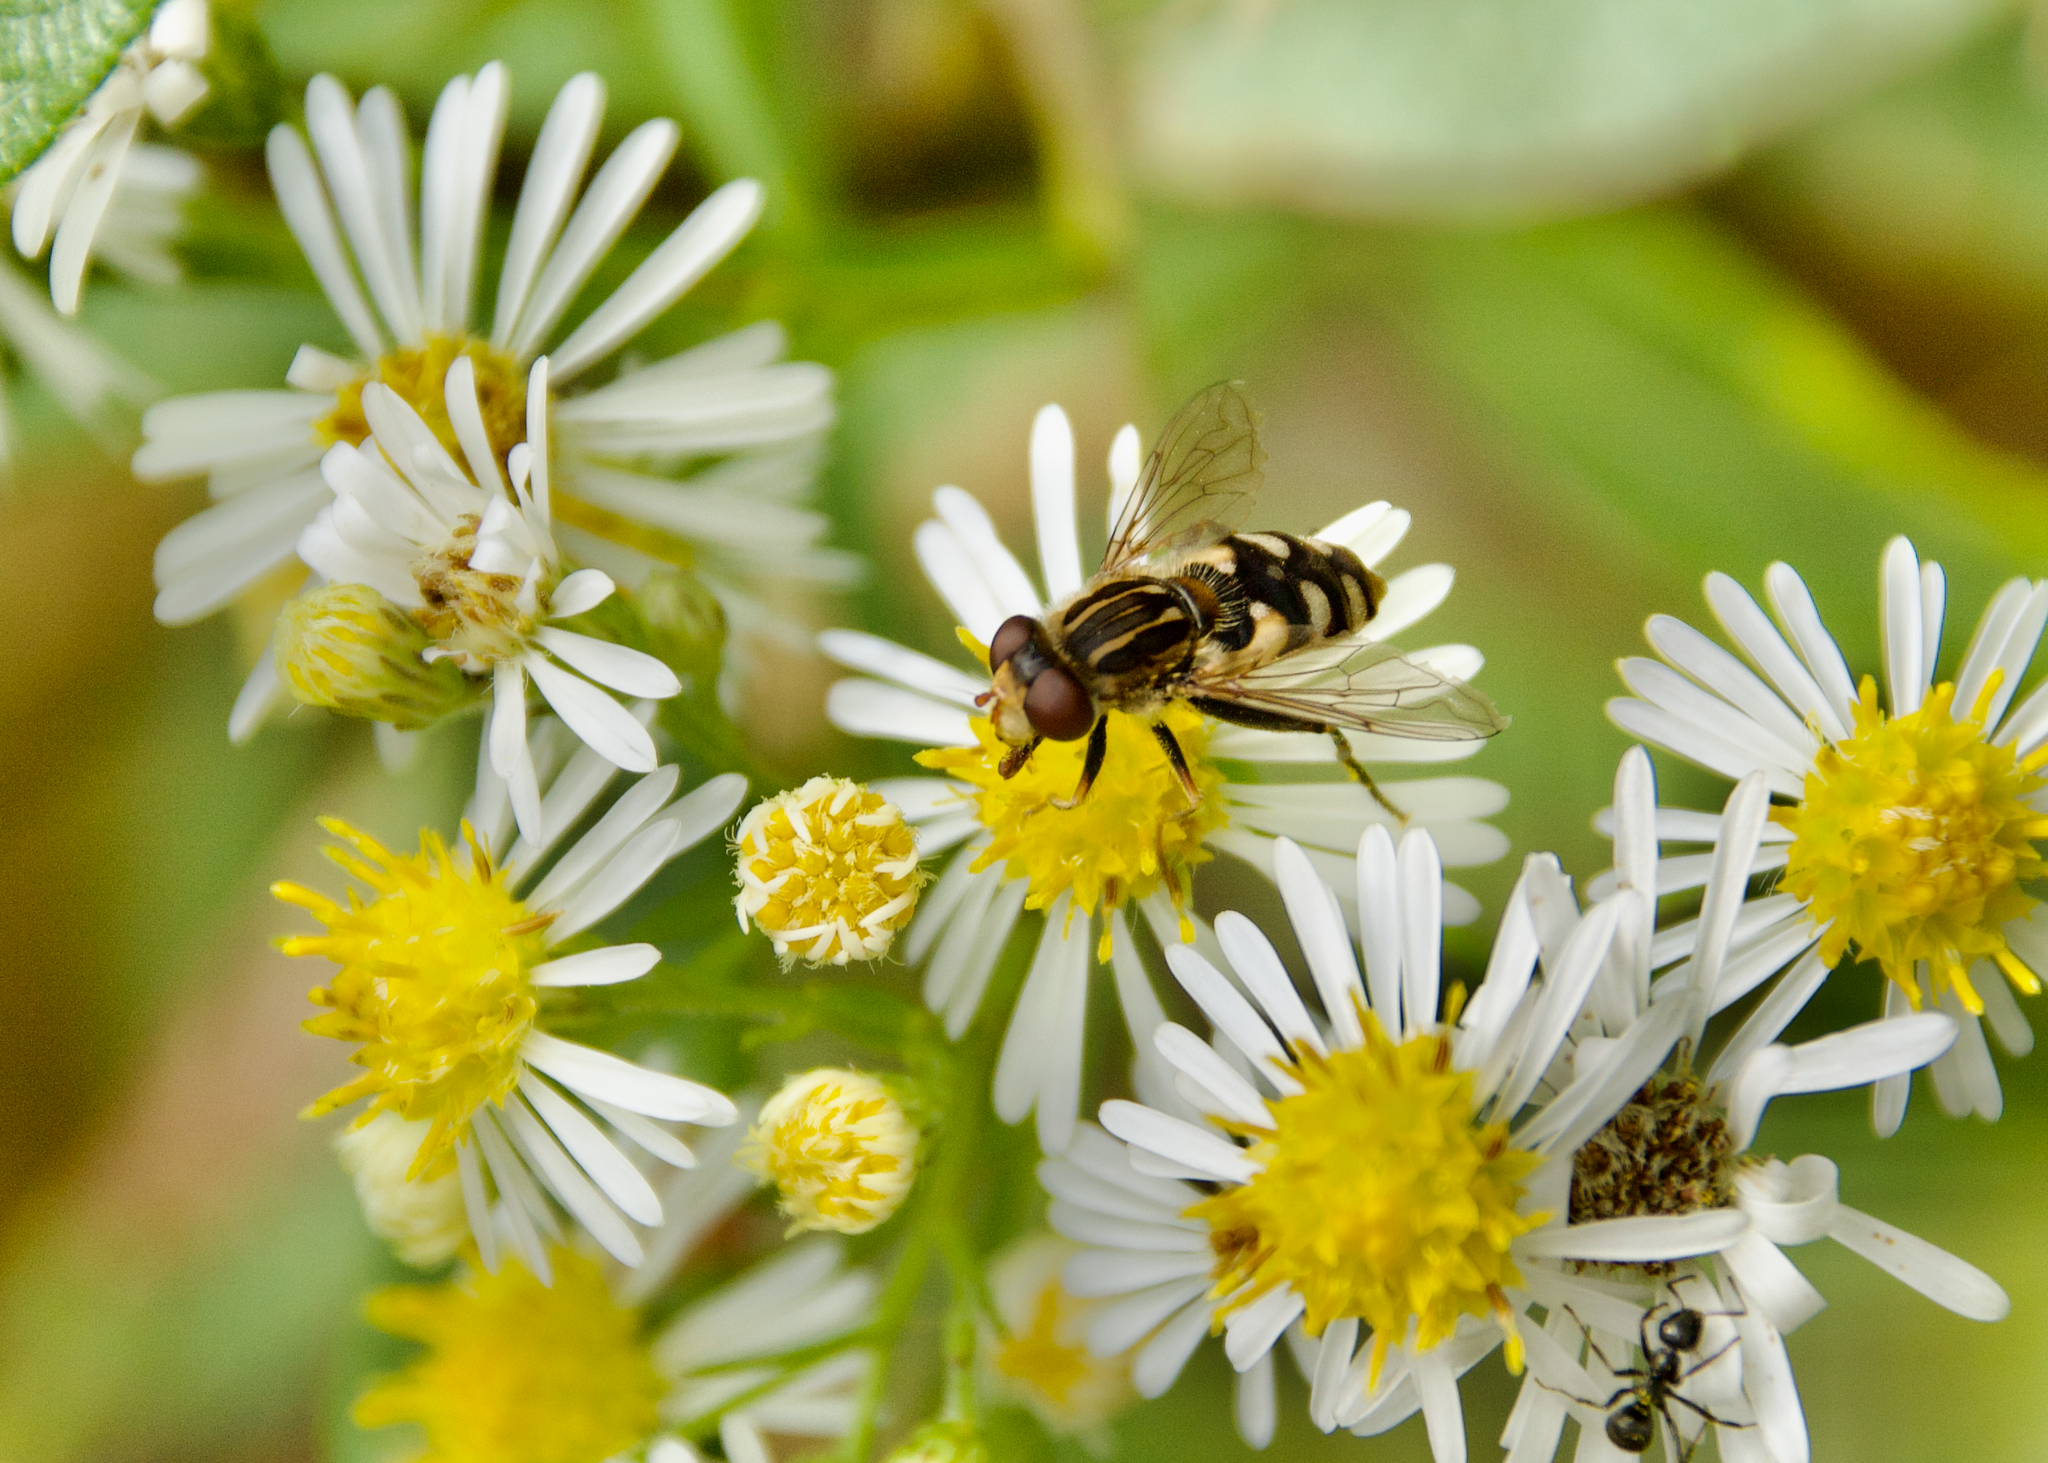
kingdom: Animalia
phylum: Arthropoda
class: Insecta
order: Diptera
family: Syrphidae
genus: Parhelophilus
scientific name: Parhelophilus rex
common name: Dusky bog fly
